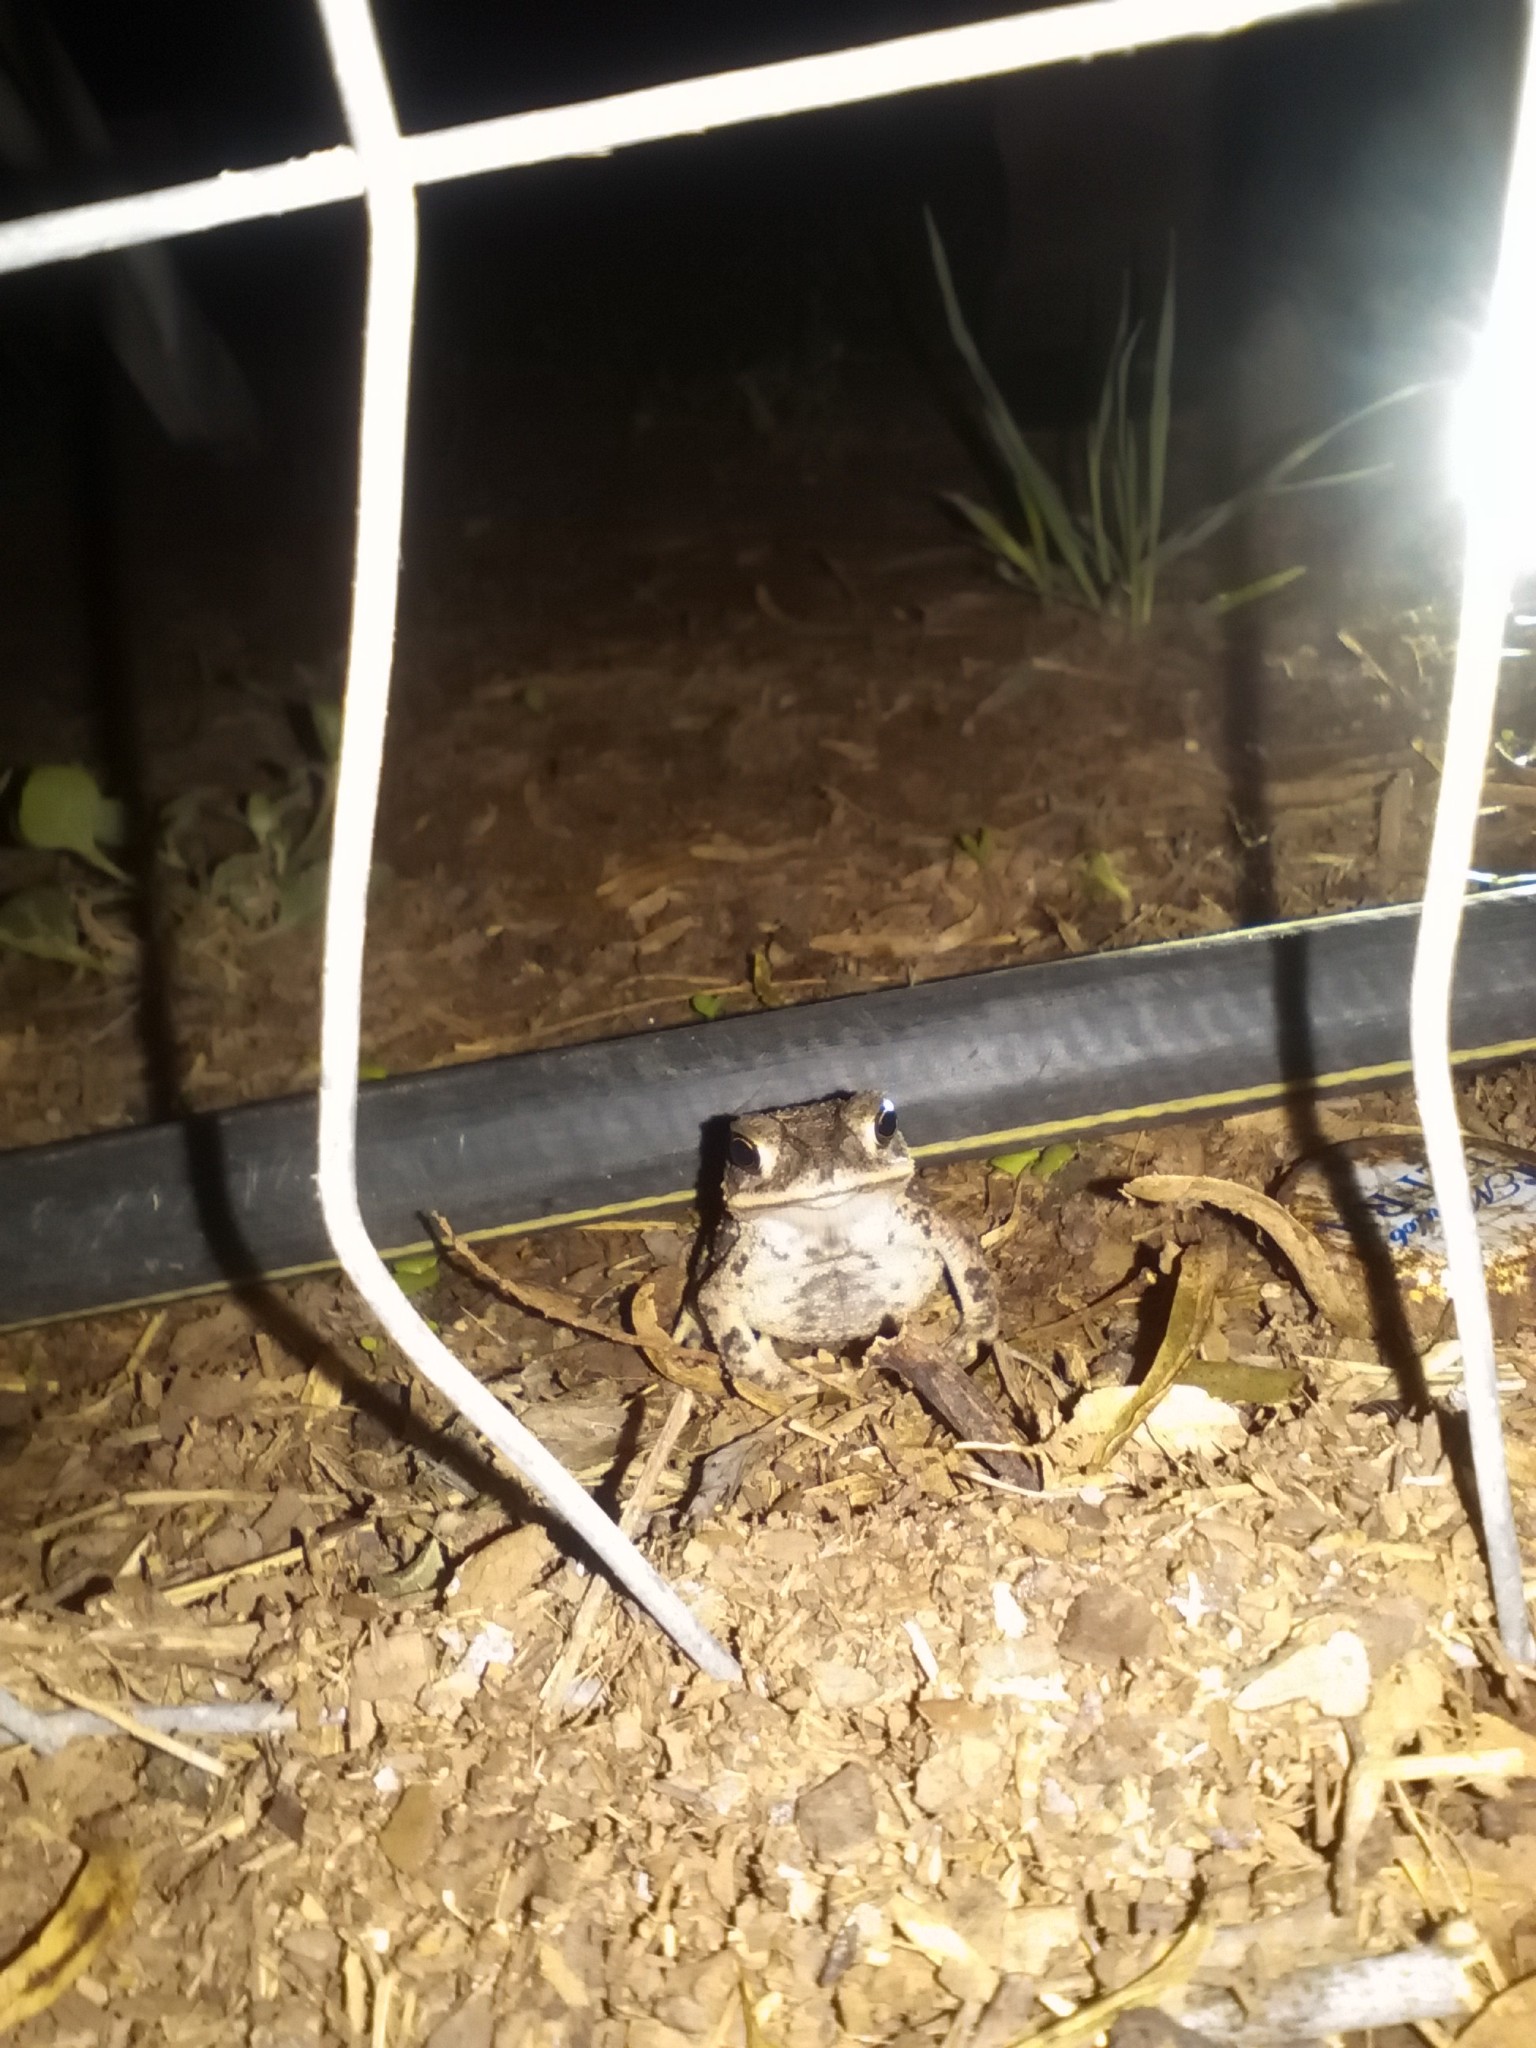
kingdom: Animalia
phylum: Chordata
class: Amphibia
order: Anura
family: Bufonidae
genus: Incilius
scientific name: Incilius nebulifer
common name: Gulf coast toad
